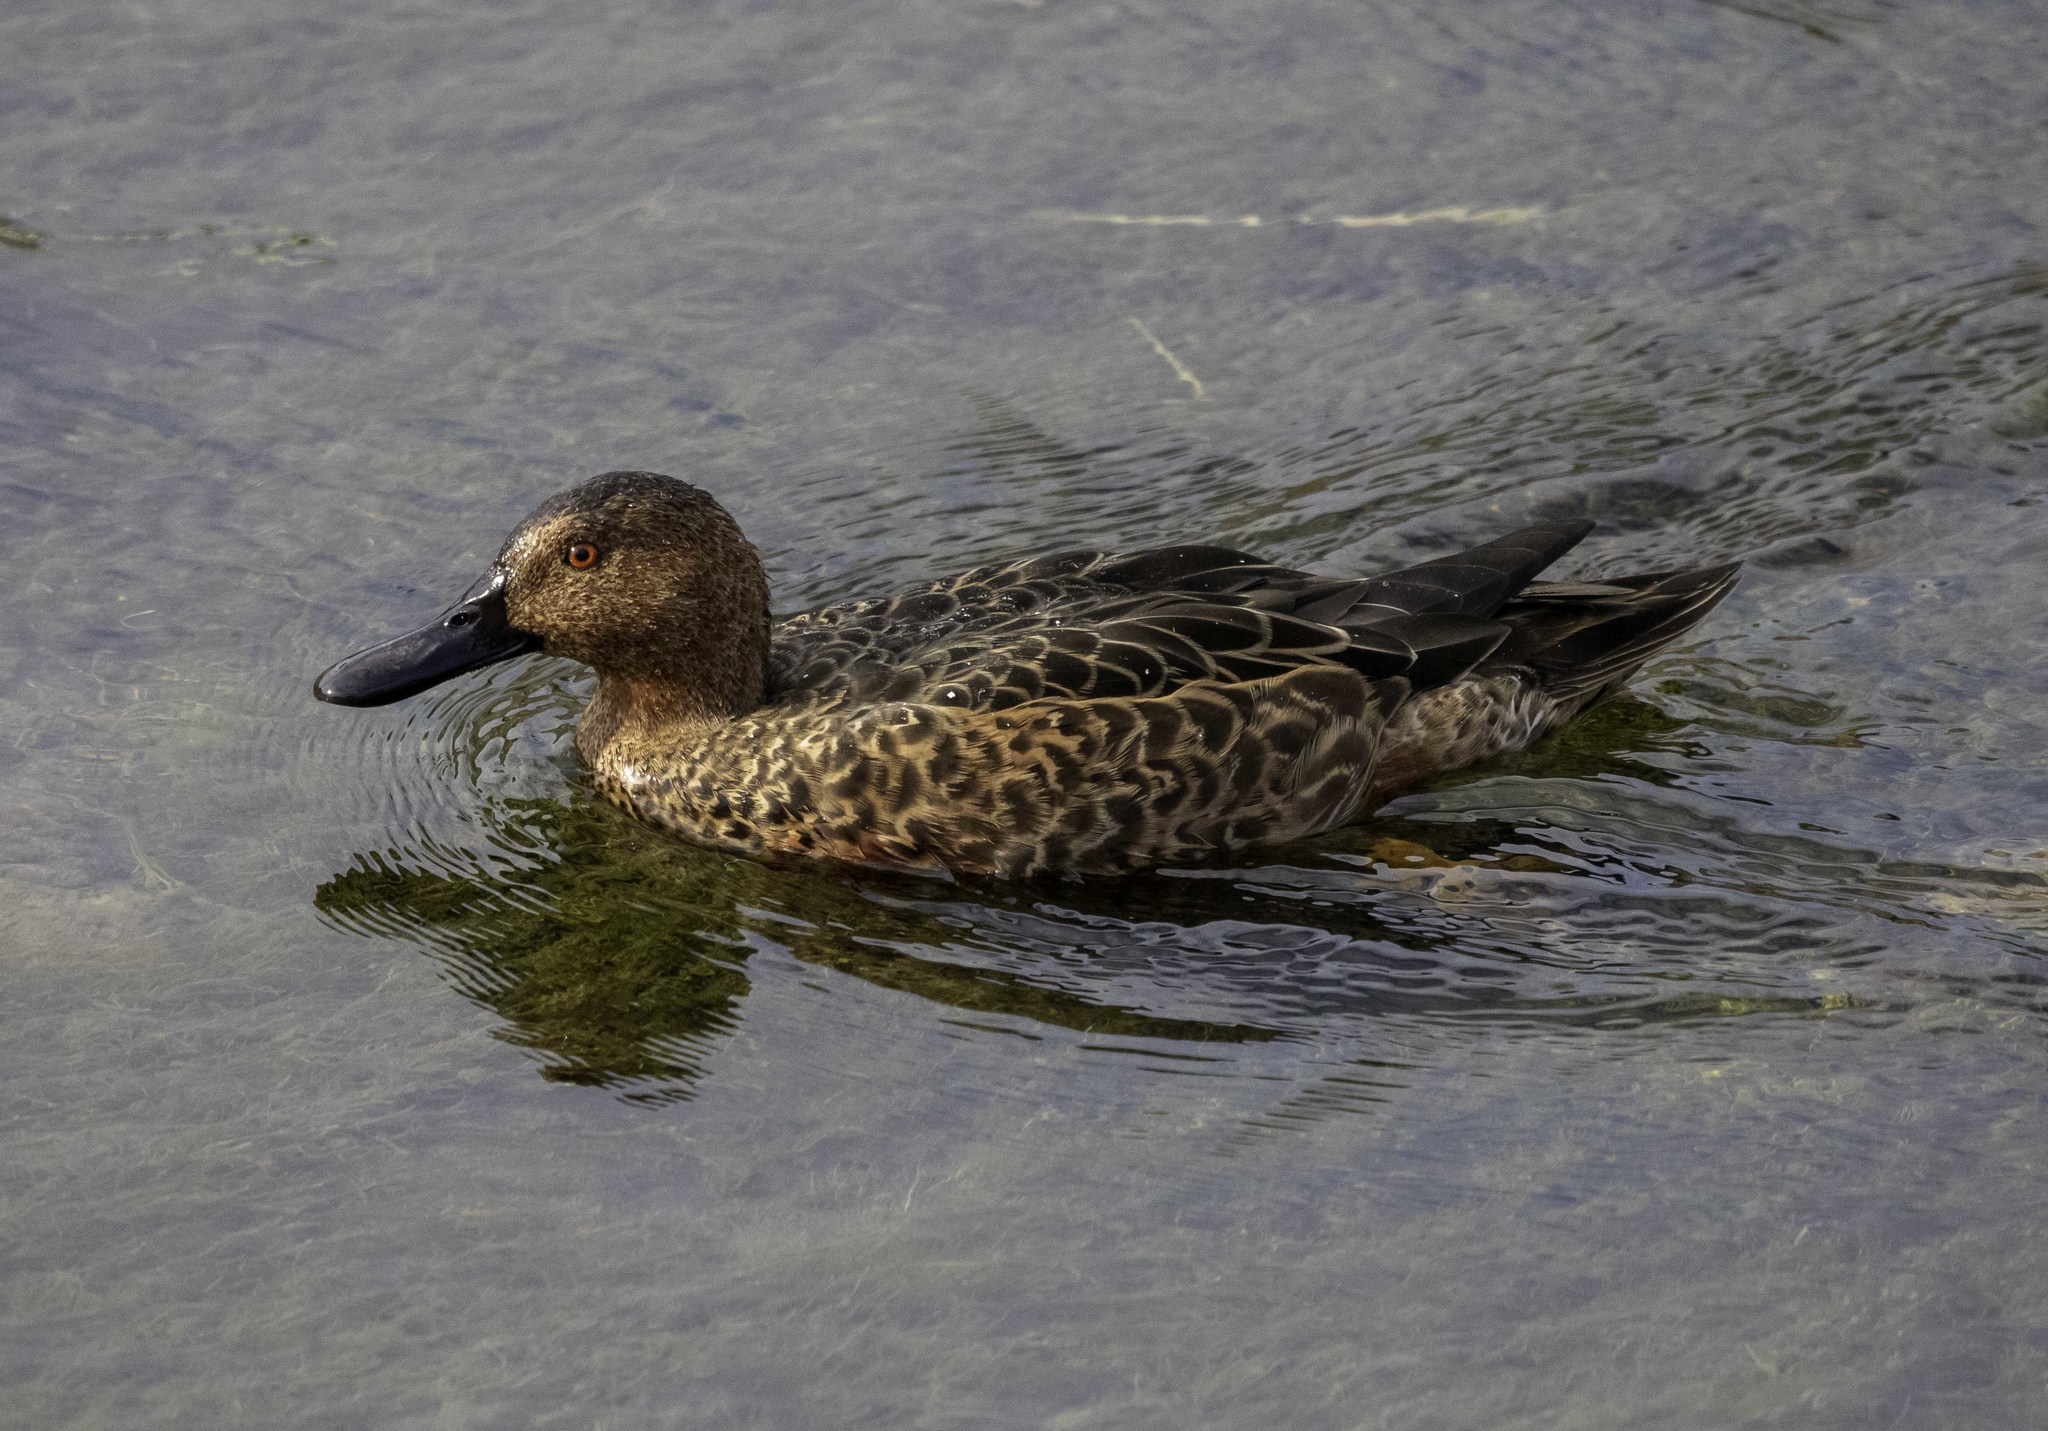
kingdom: Animalia
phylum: Chordata
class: Aves
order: Anseriformes
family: Anatidae
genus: Spatula
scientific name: Spatula cyanoptera
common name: Cinnamon teal
